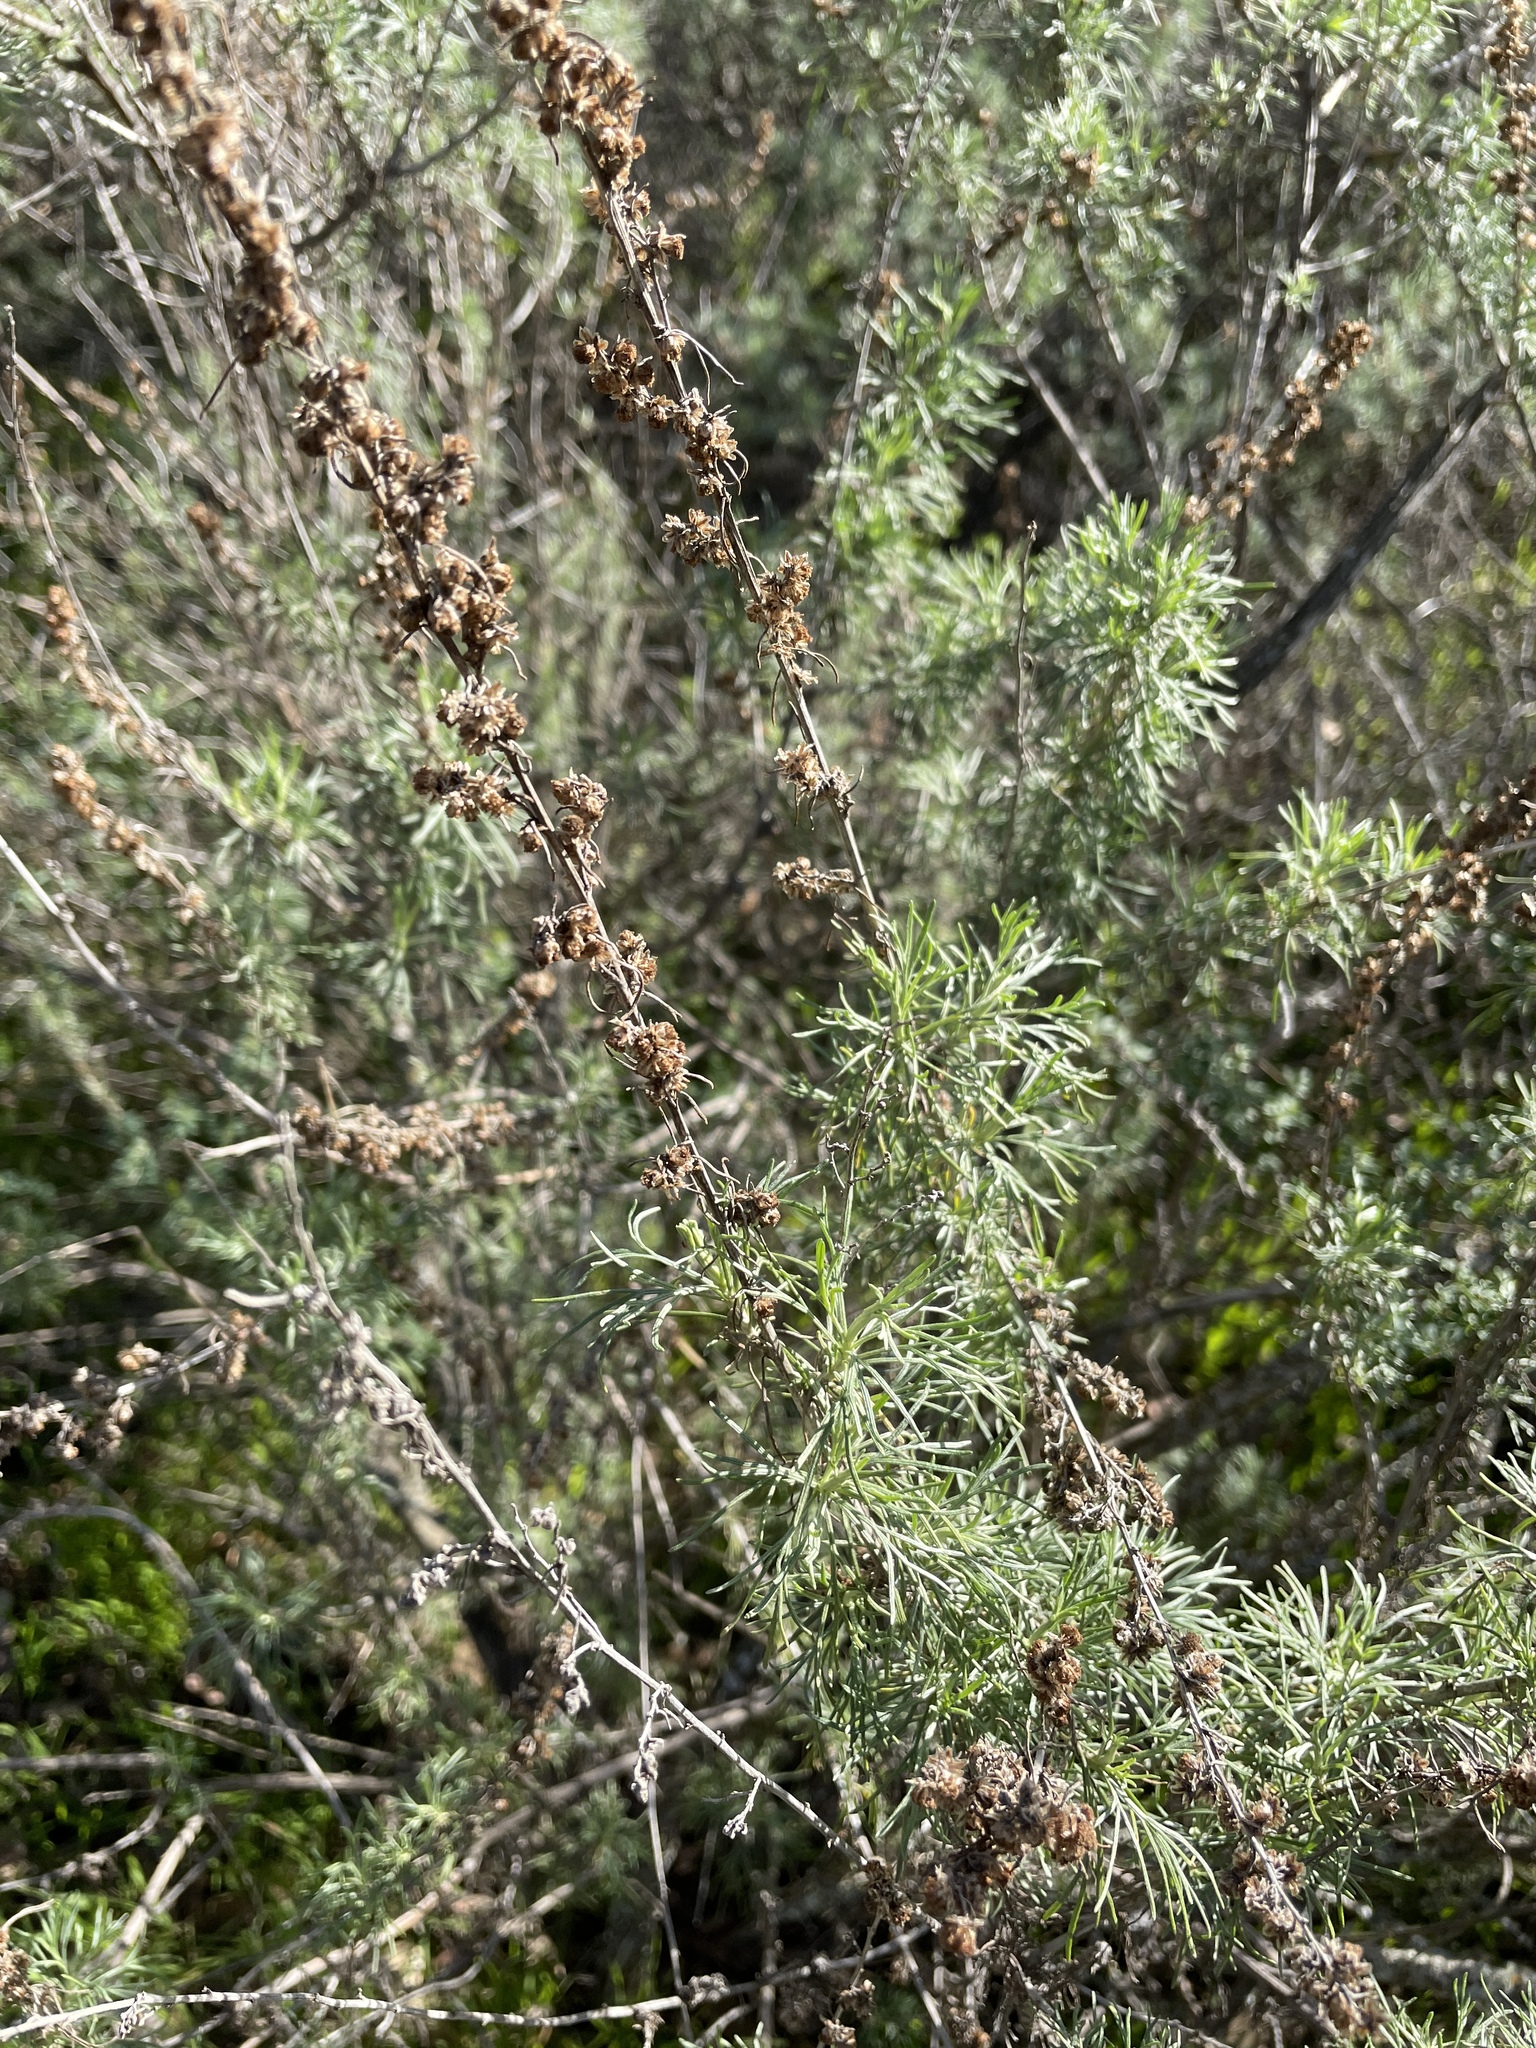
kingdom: Plantae
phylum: Tracheophyta
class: Magnoliopsida
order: Asterales
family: Asteraceae
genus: Artemisia
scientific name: Artemisia californica
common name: California sagebrush
